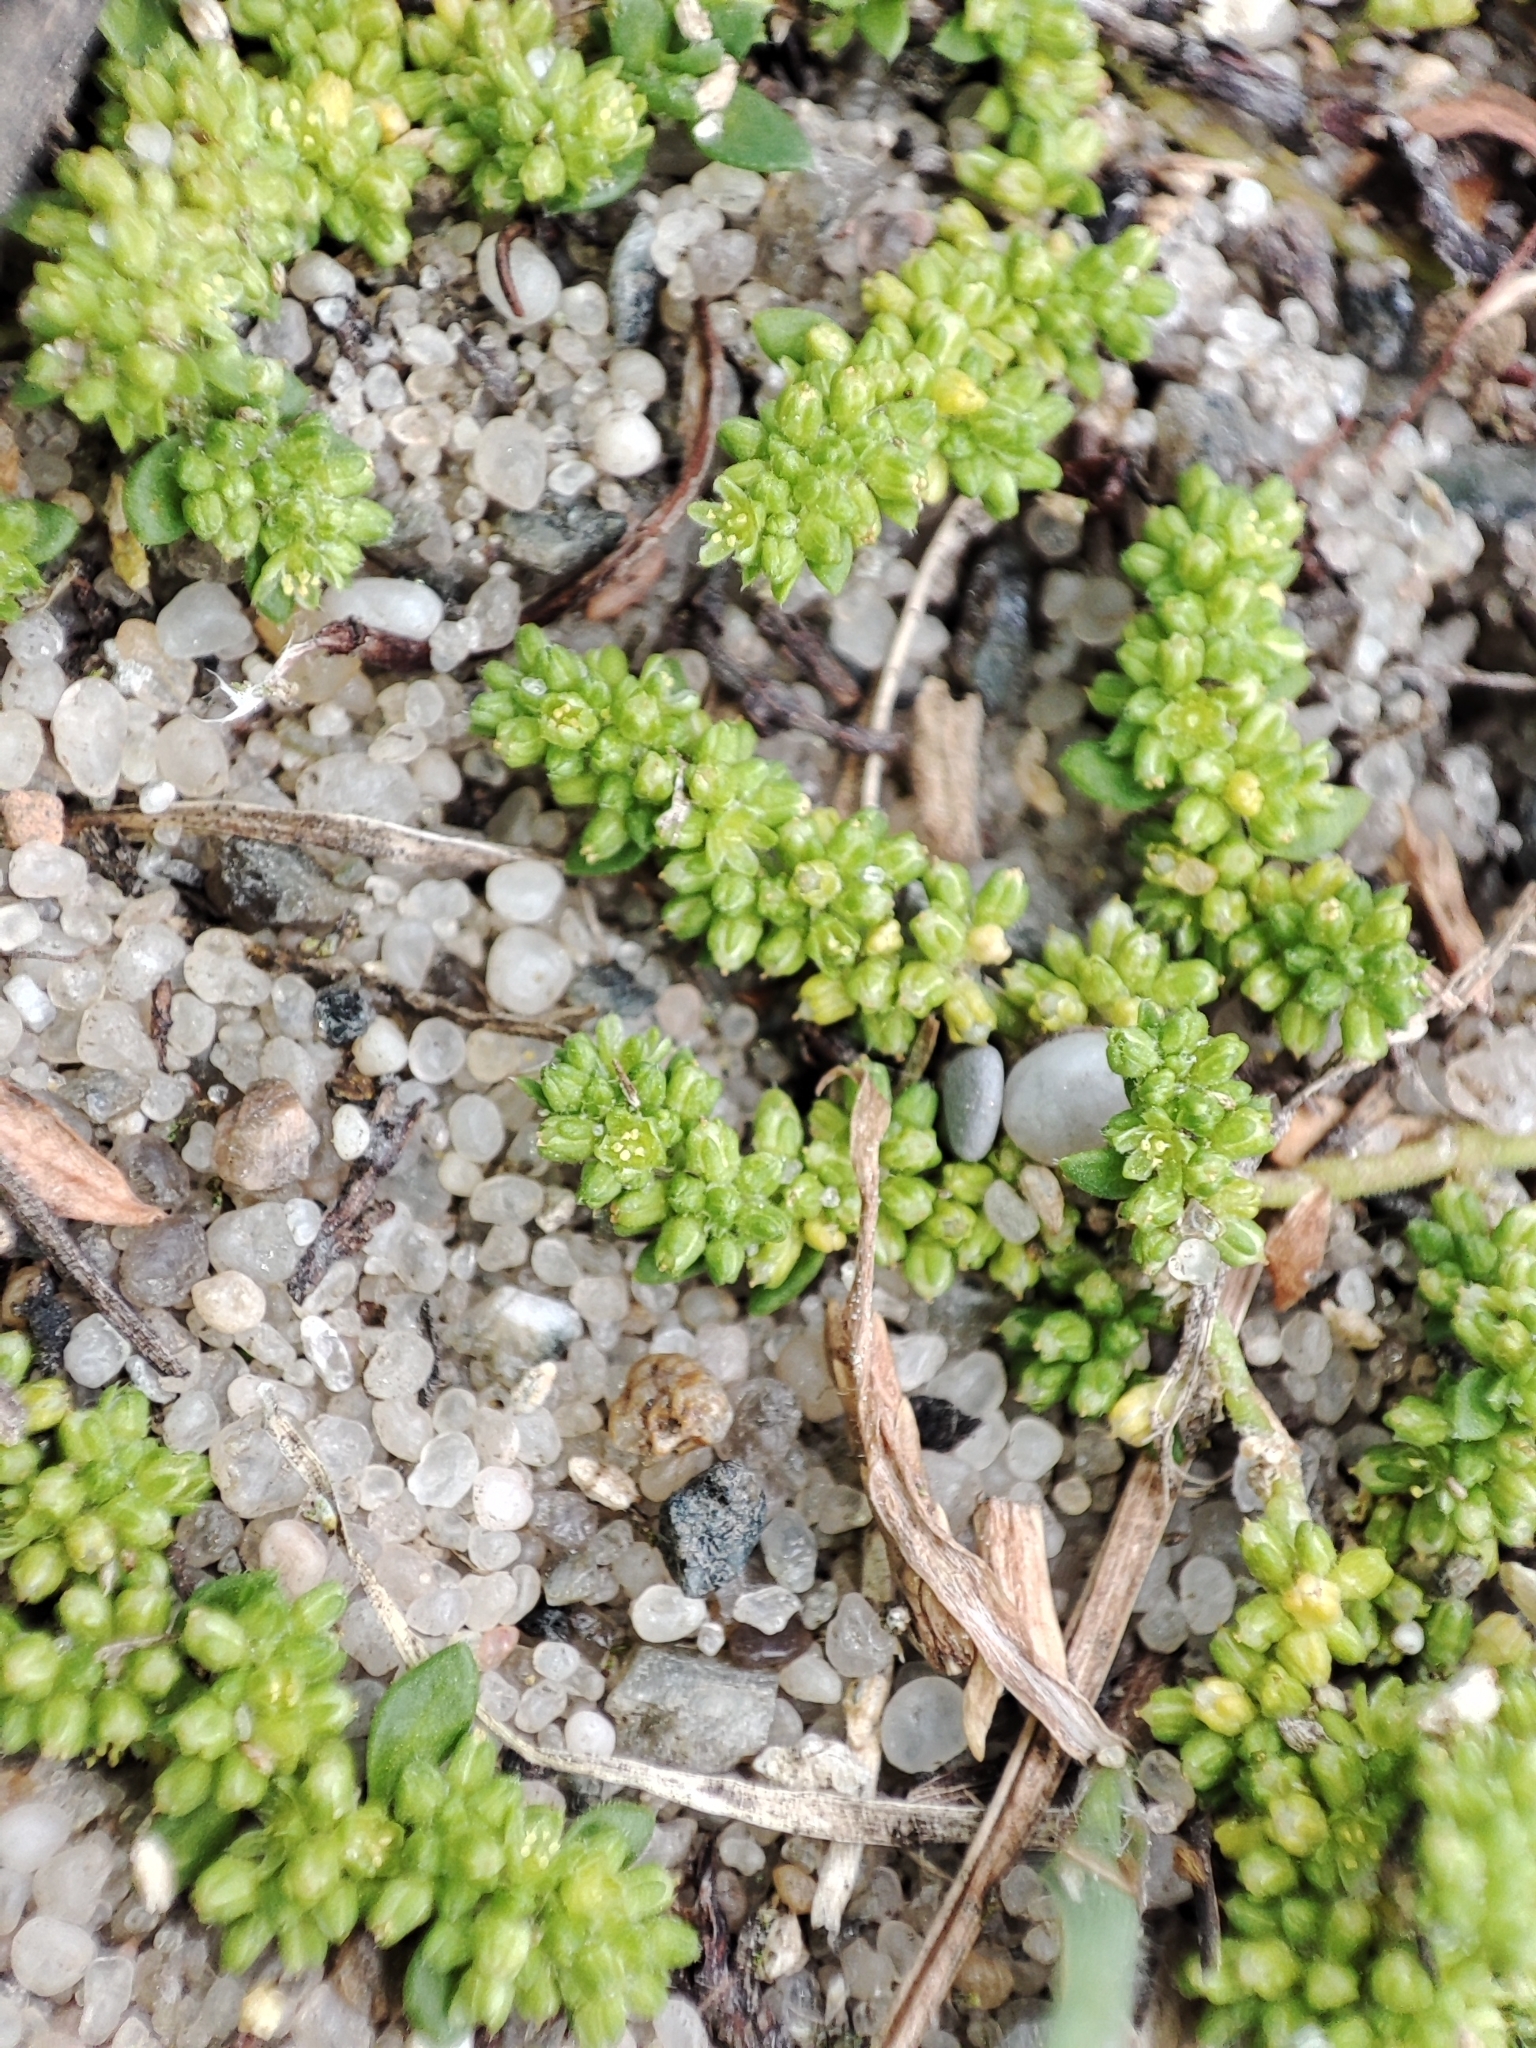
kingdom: Plantae
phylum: Tracheophyta
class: Magnoliopsida
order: Caryophyllales
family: Caryophyllaceae
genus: Herniaria
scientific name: Herniaria polygama
